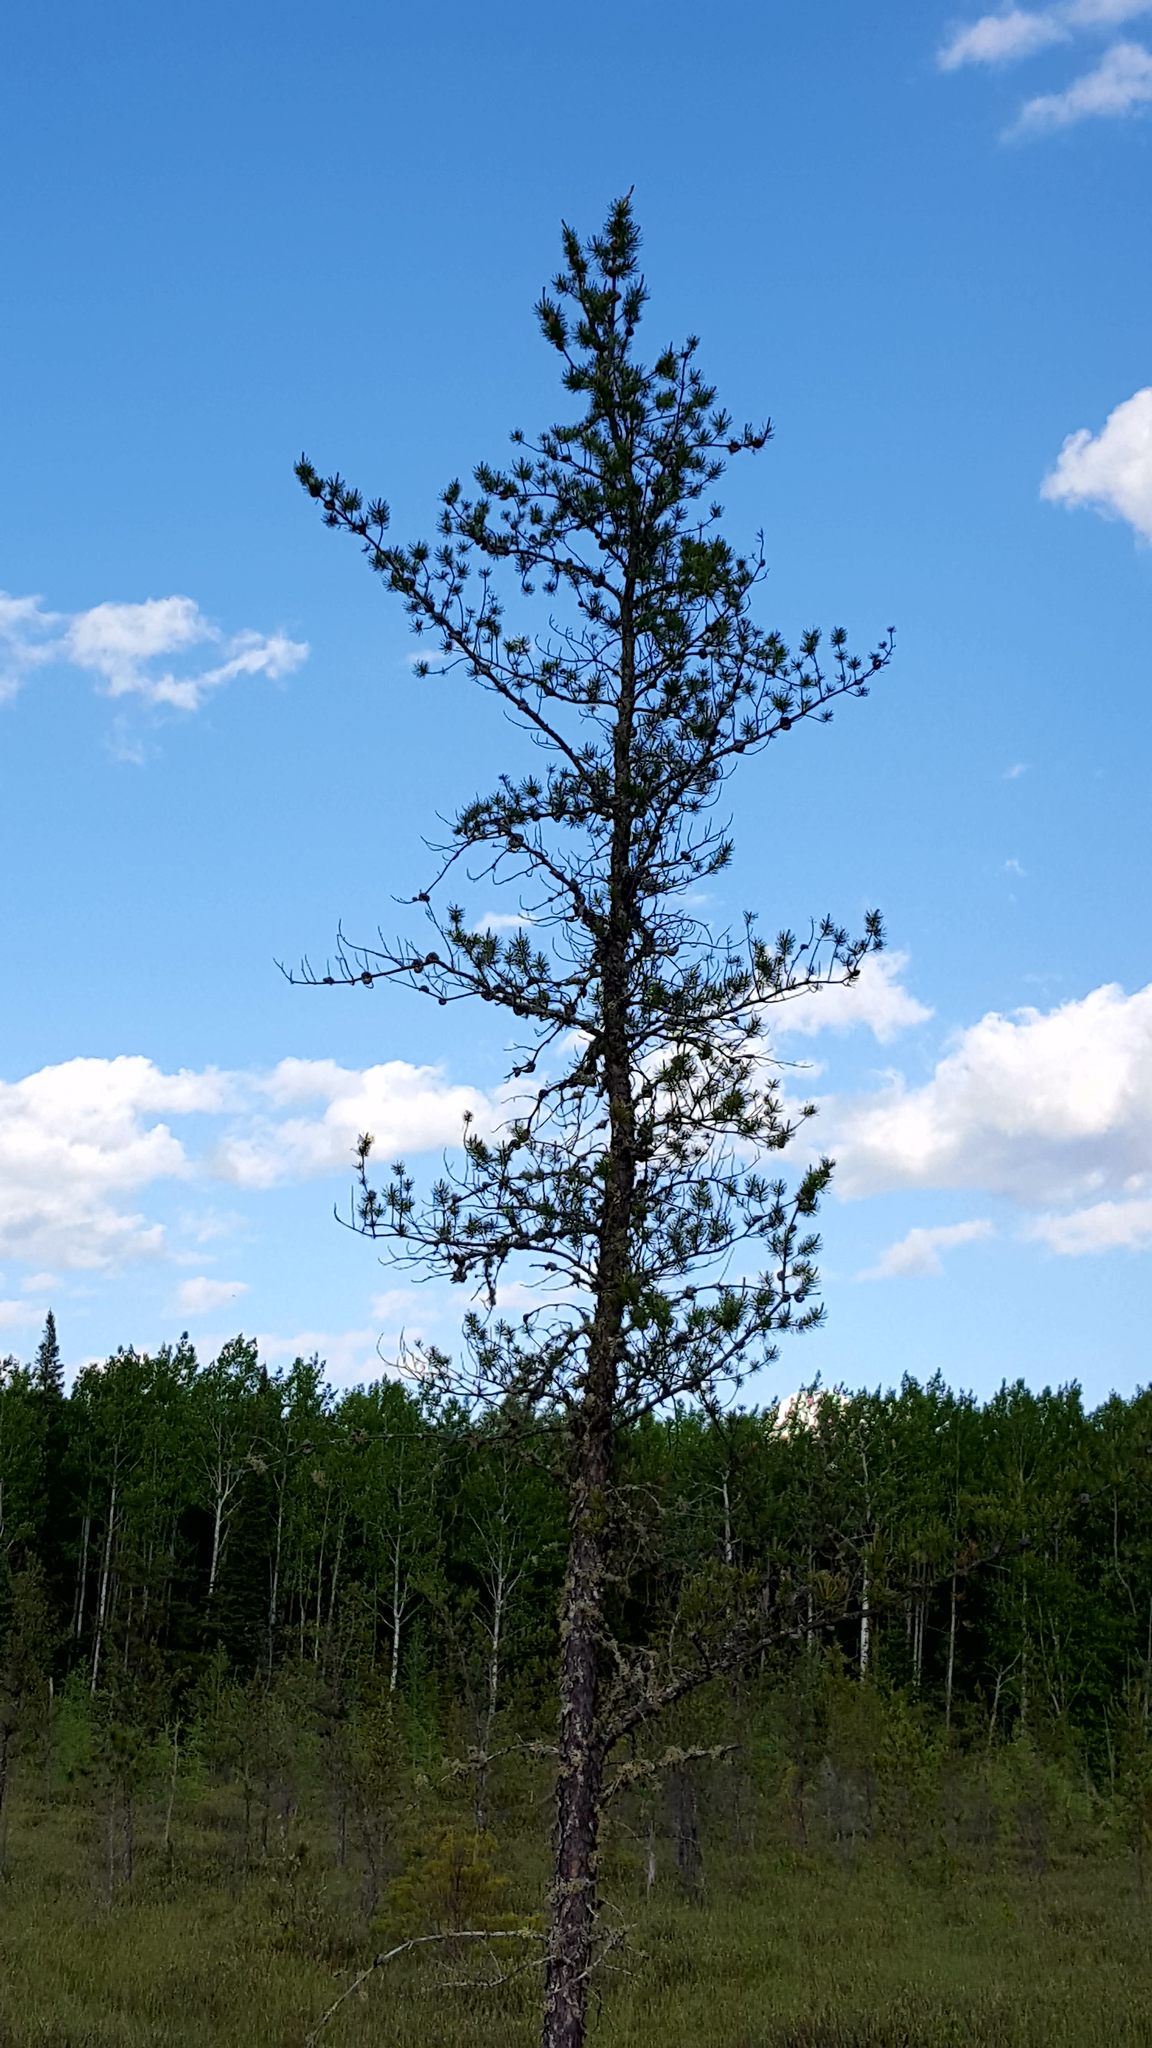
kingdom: Plantae
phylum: Tracheophyta
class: Pinopsida
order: Pinales
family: Pinaceae
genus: Pinus
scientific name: Pinus banksiana
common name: Jack pine
